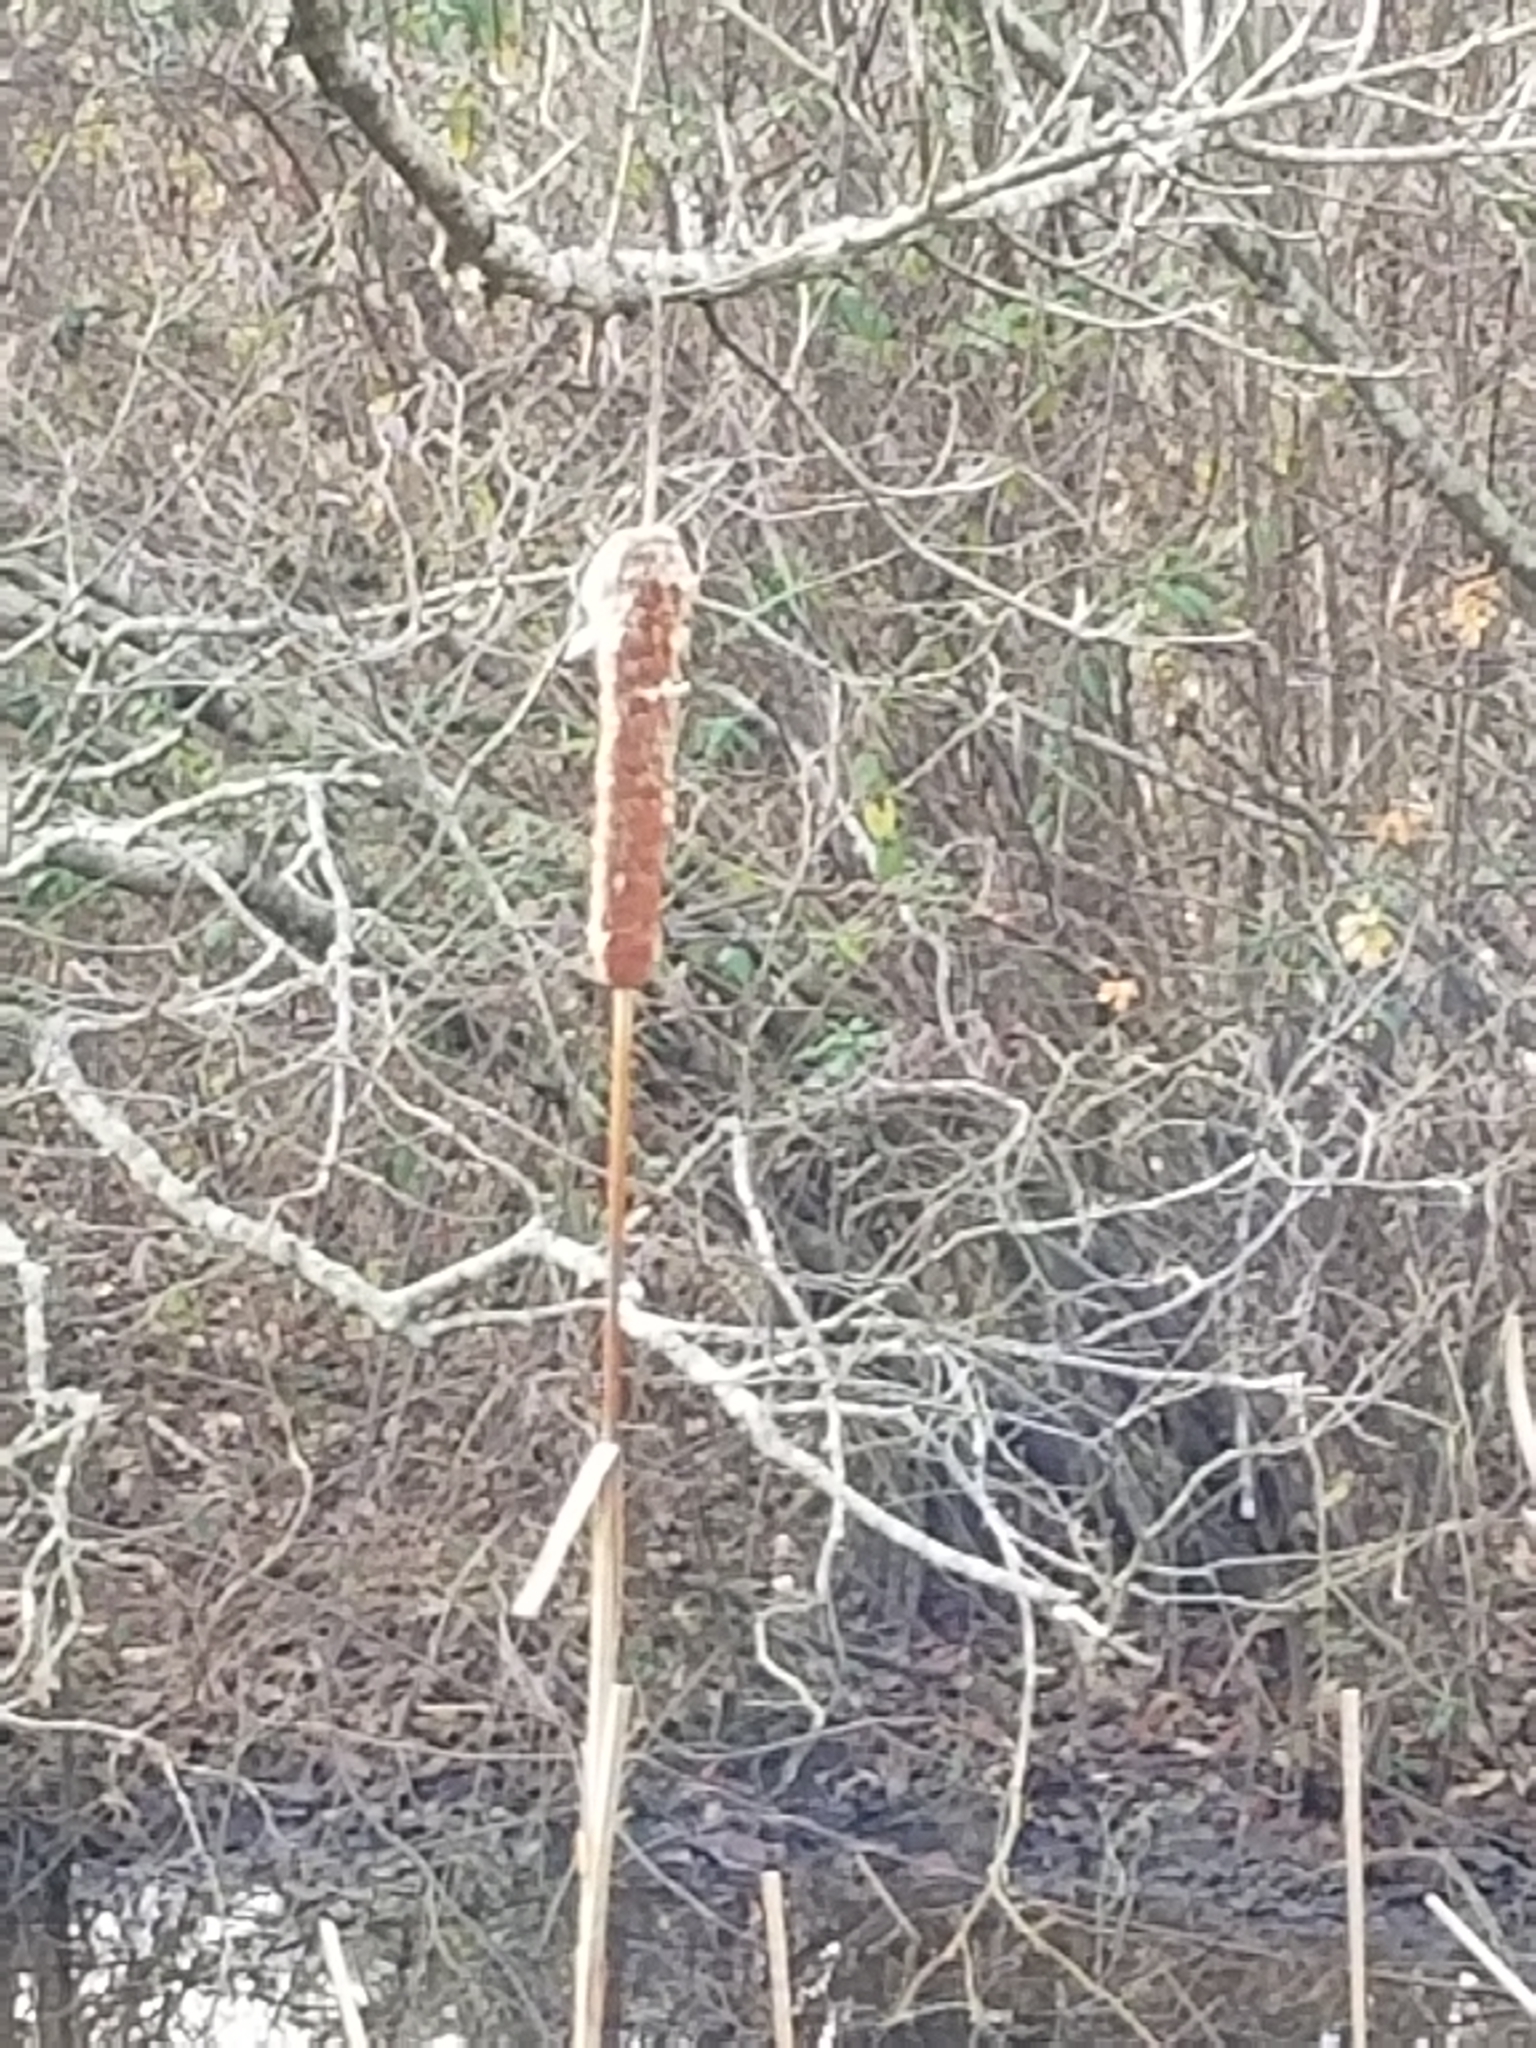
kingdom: Plantae
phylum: Tracheophyta
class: Liliopsida
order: Poales
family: Typhaceae
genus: Typha
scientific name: Typha latifolia
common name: Broadleaf cattail
